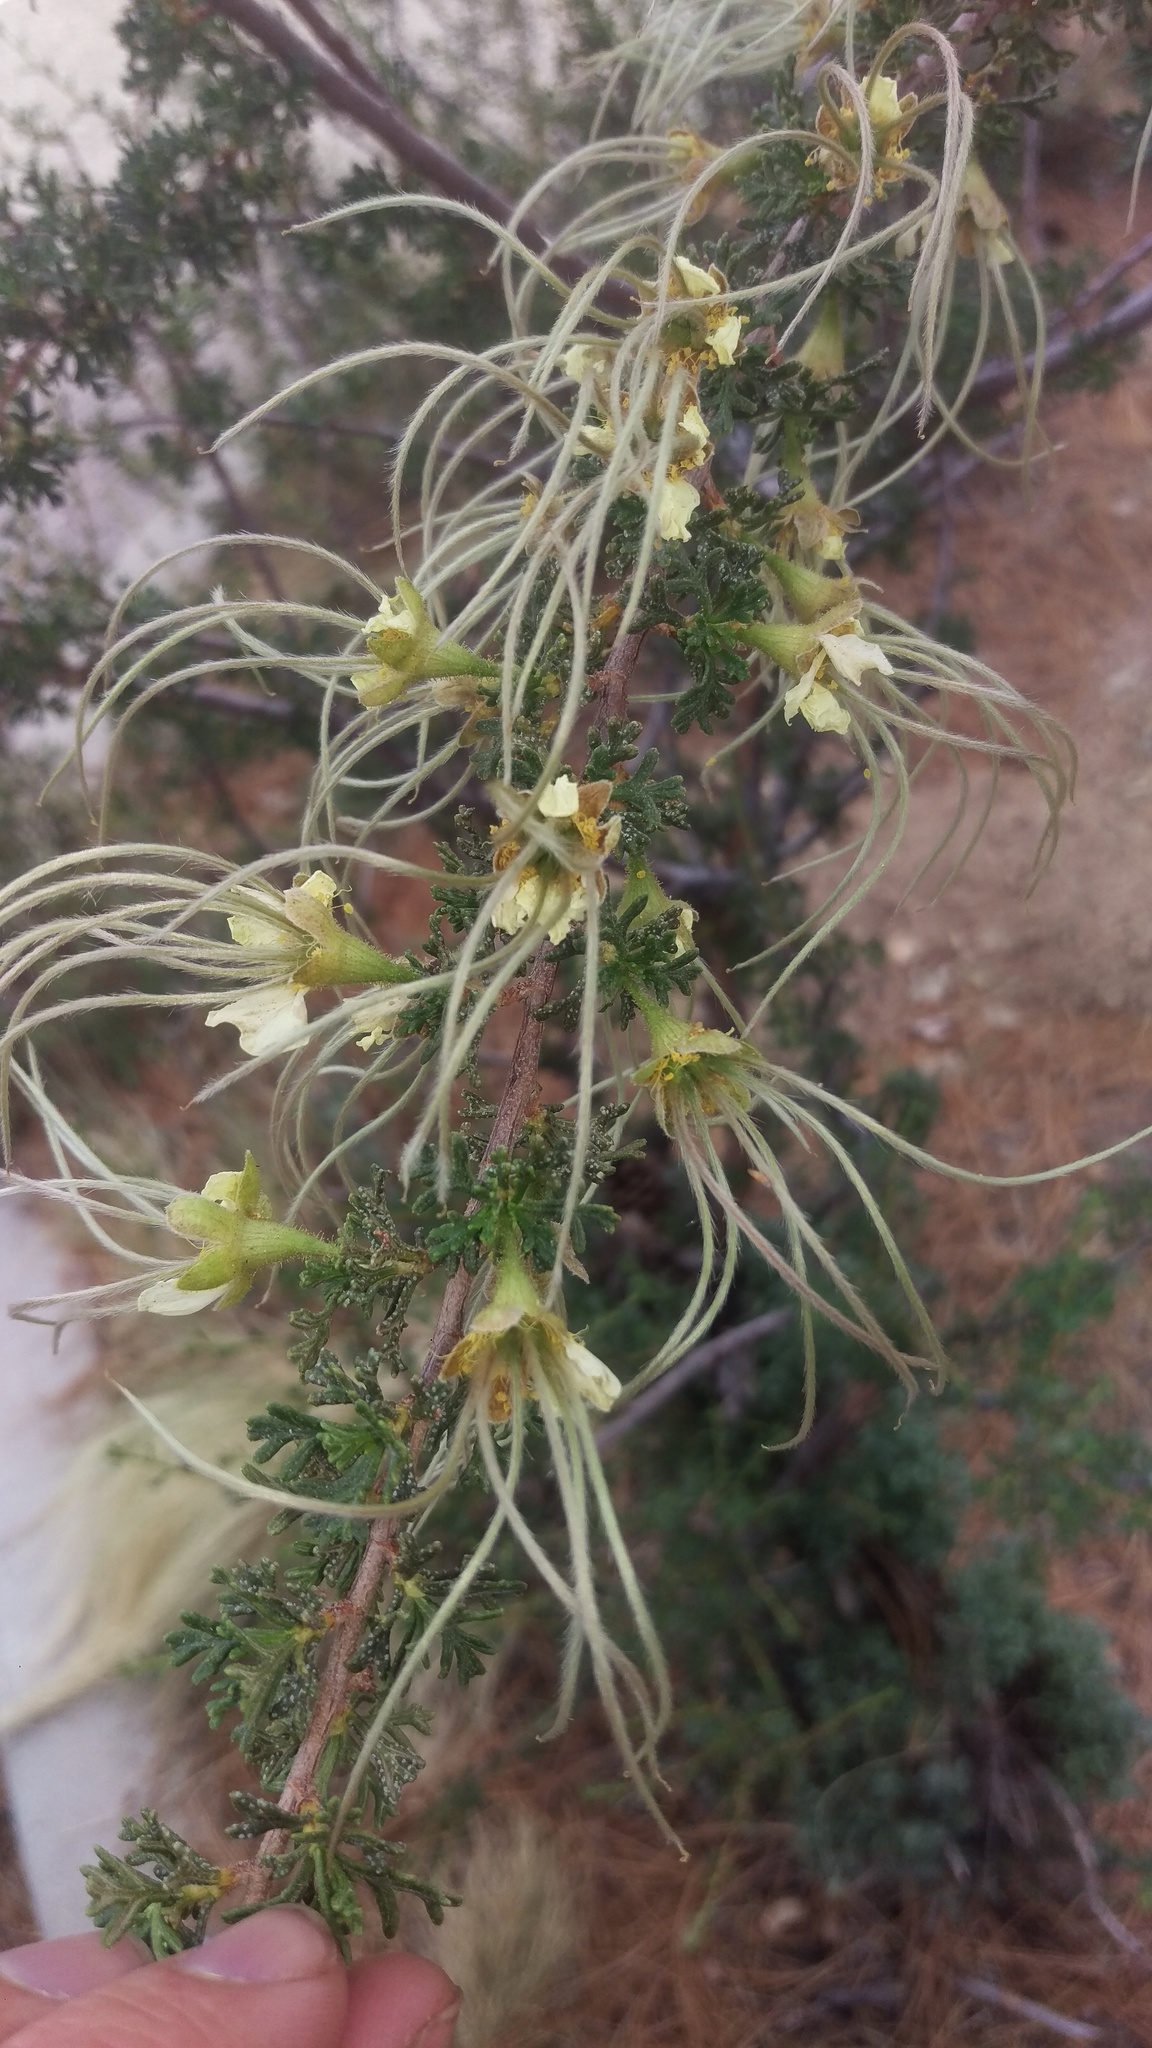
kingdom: Plantae
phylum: Tracheophyta
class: Magnoliopsida
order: Rosales
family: Rosaceae
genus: Purshia
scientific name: Purshia stansburiana
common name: Stansbury's cliffrose
